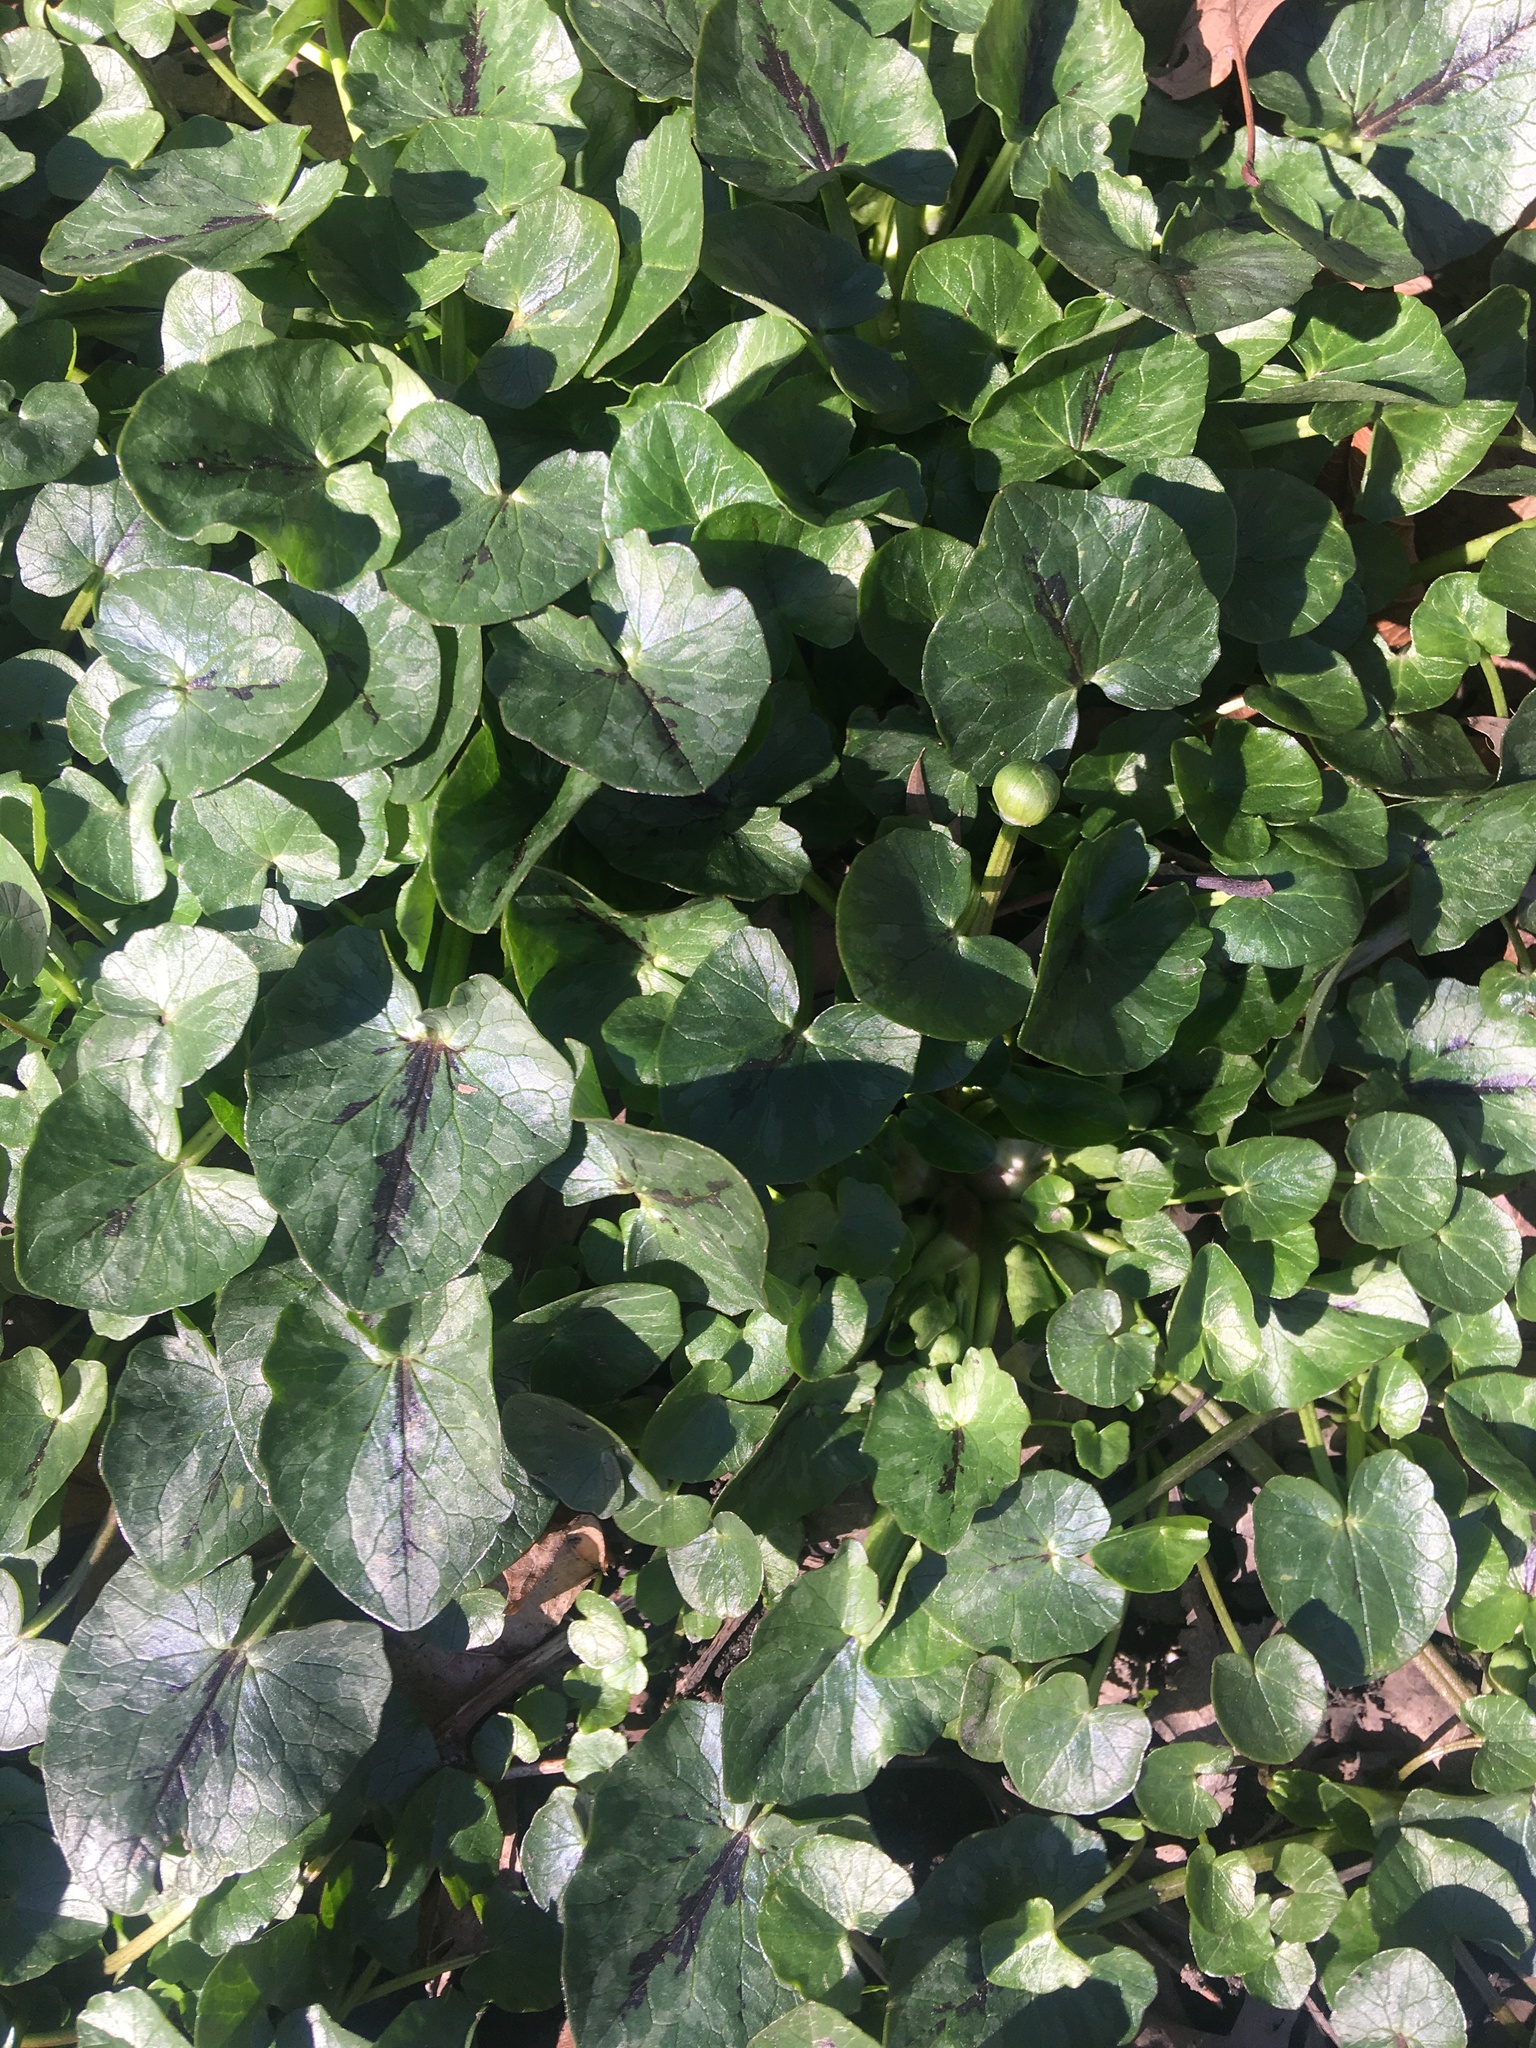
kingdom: Plantae
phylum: Tracheophyta
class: Magnoliopsida
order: Ranunculales
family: Ranunculaceae
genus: Ficaria
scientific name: Ficaria verna
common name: Lesser celandine
